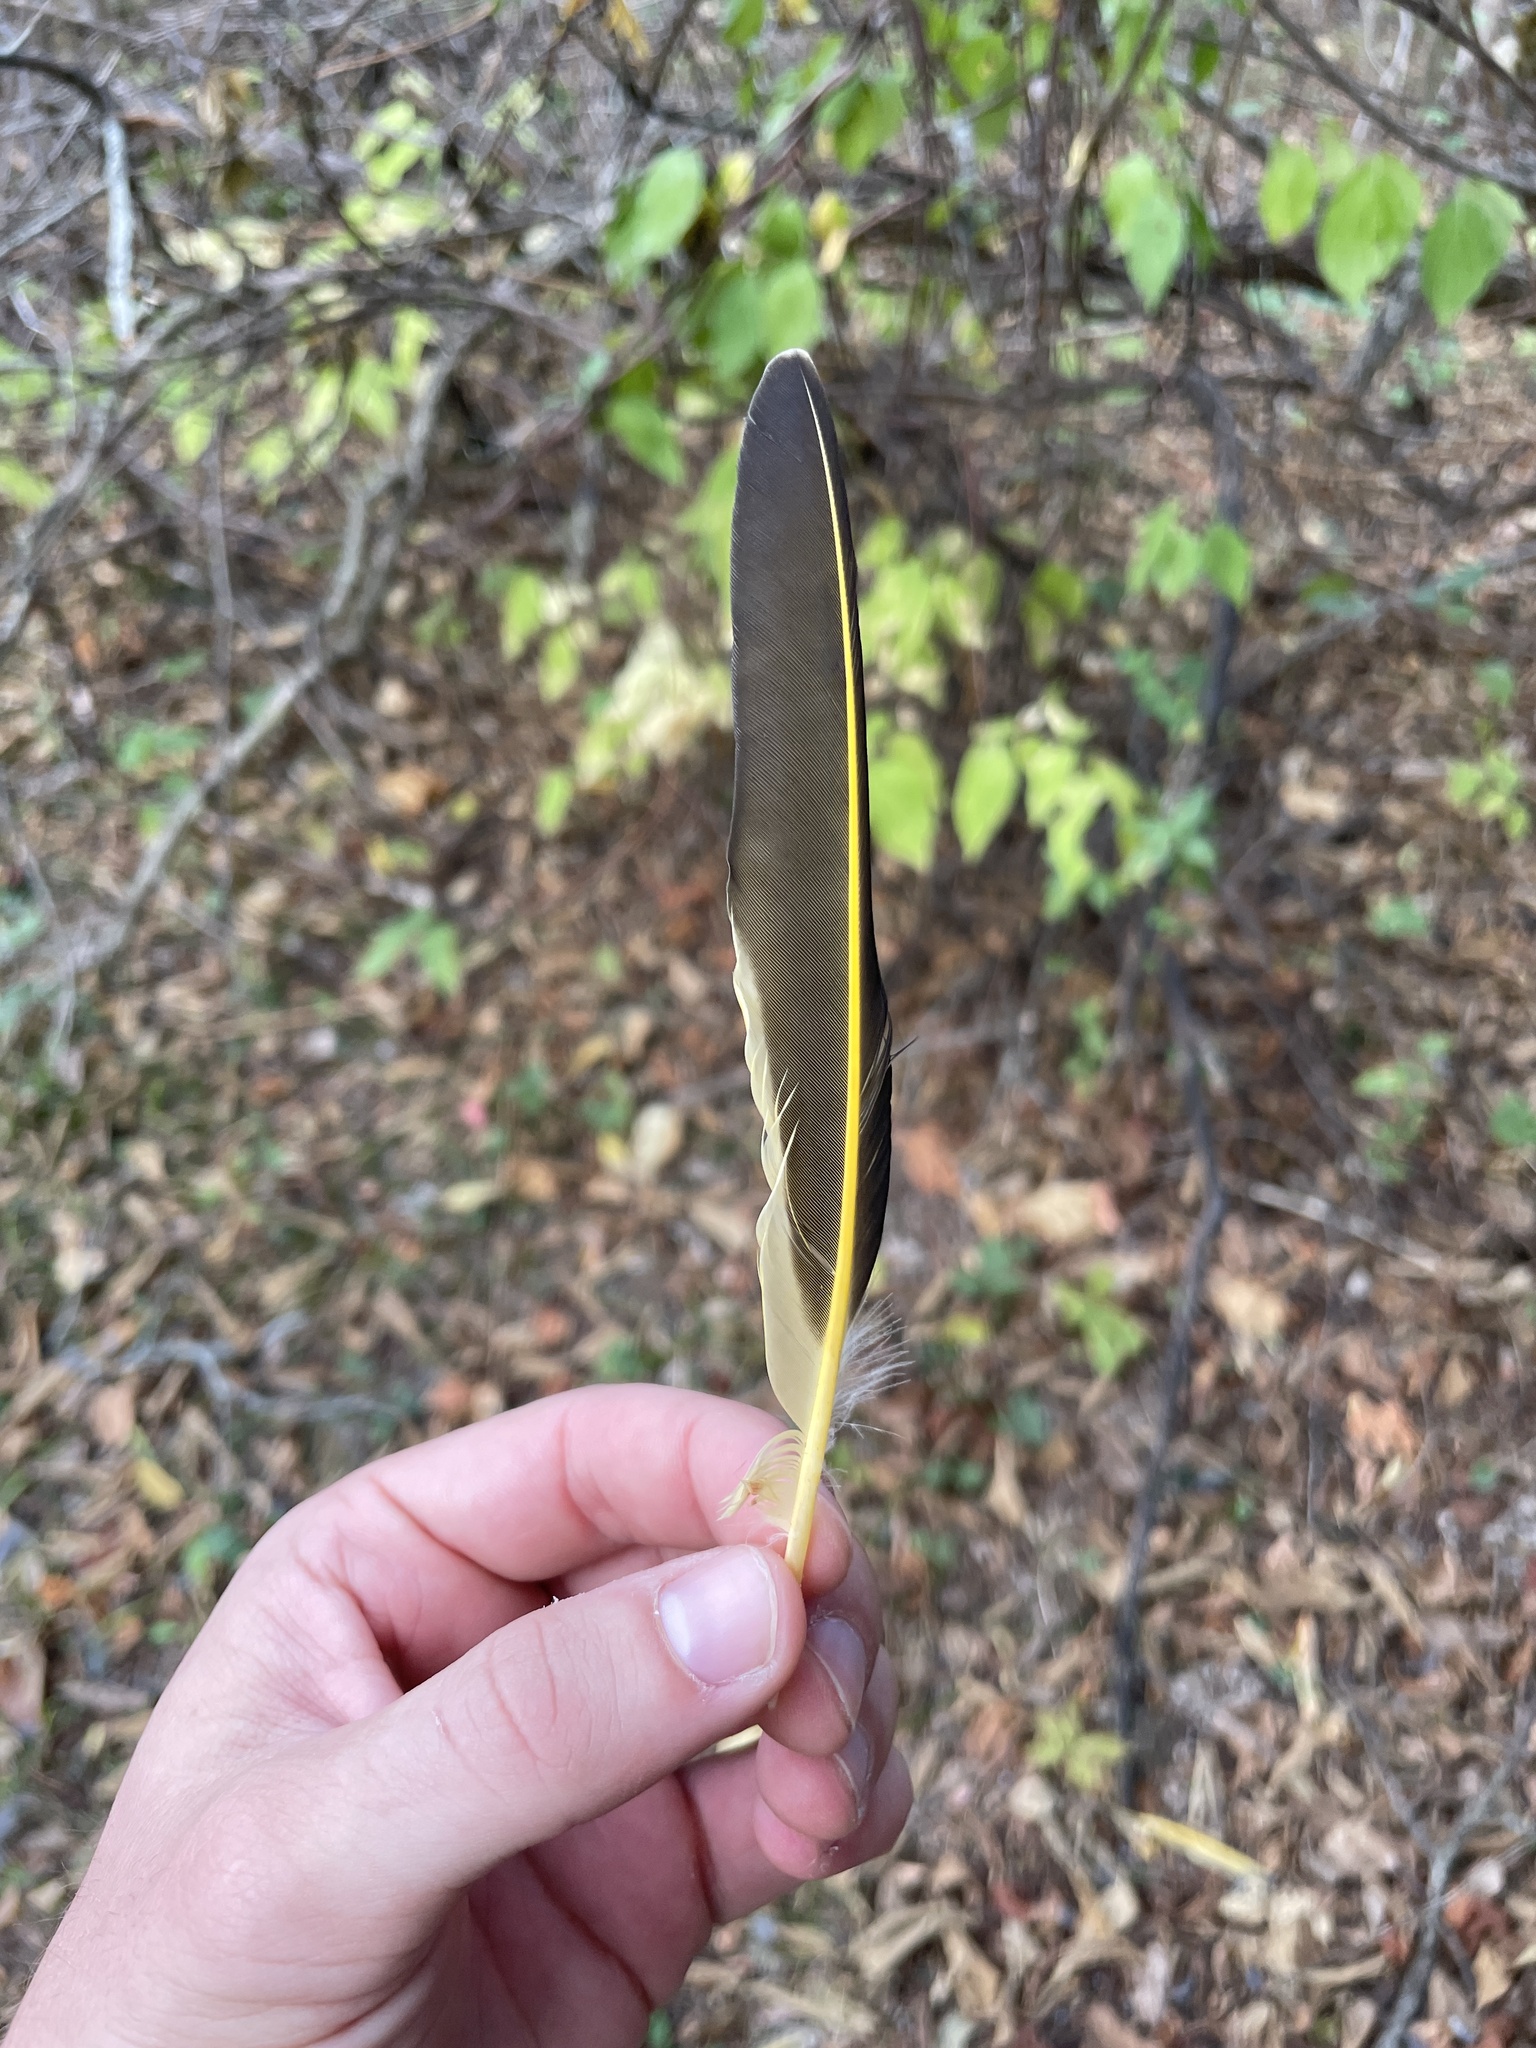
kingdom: Animalia
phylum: Chordata
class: Aves
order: Piciformes
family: Picidae
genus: Colaptes
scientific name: Colaptes auratus
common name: Northern flicker
